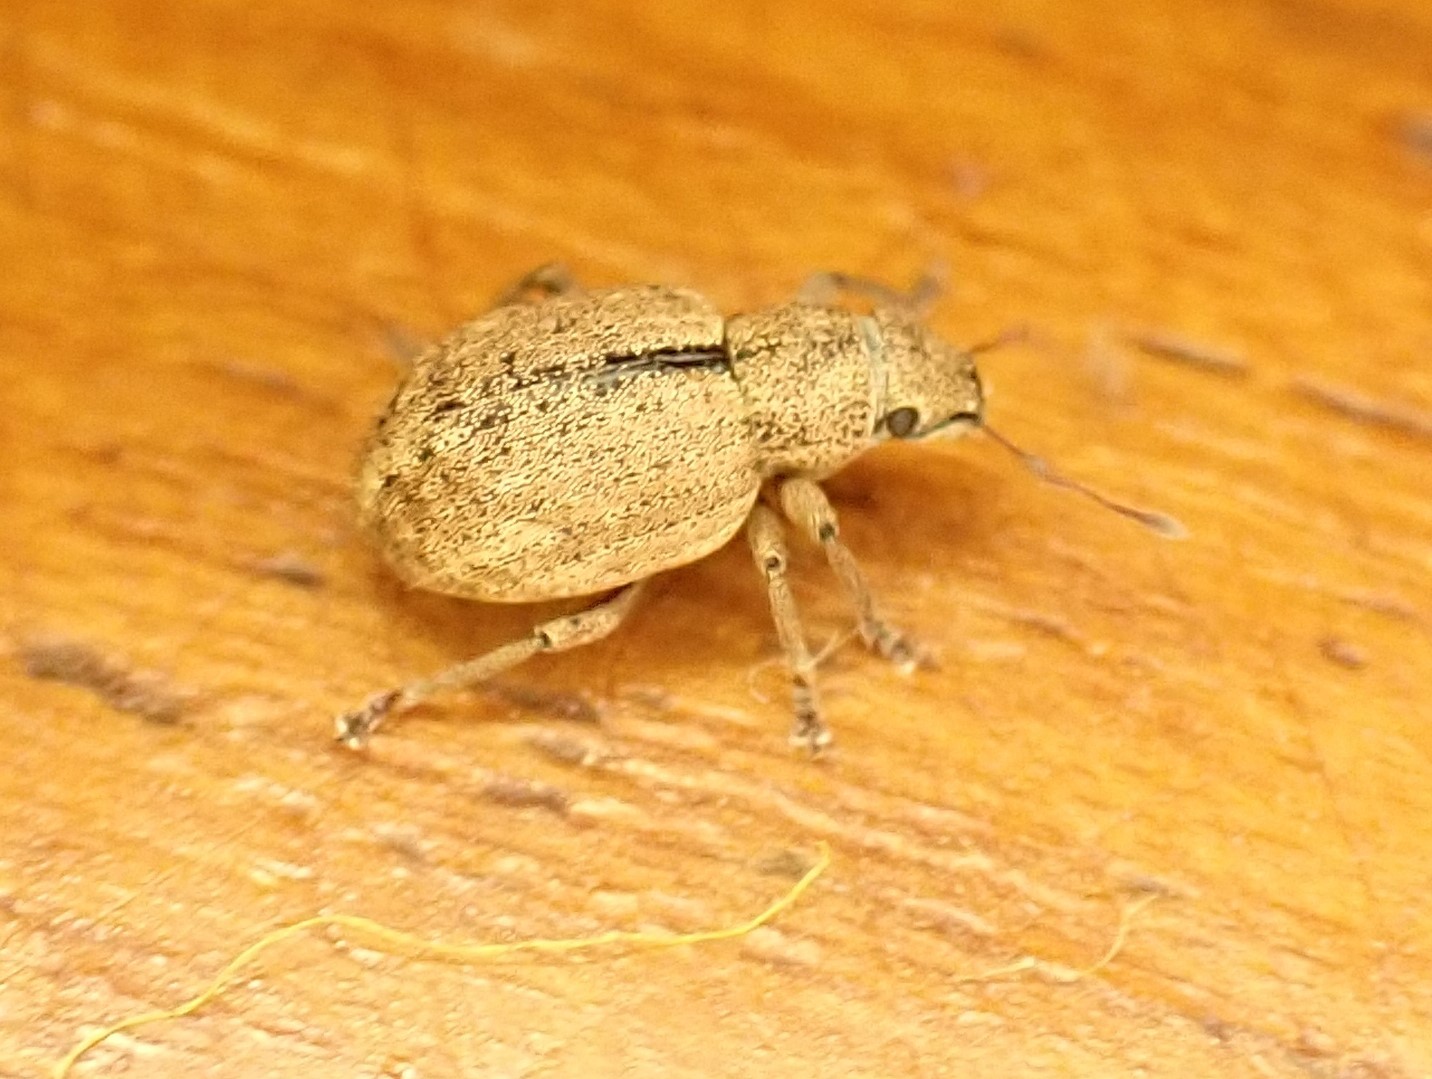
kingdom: Animalia
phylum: Arthropoda
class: Insecta
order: Coleoptera
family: Curculionidae
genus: Strophosoma
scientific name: Strophosoma melanogrammum
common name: Weevil
